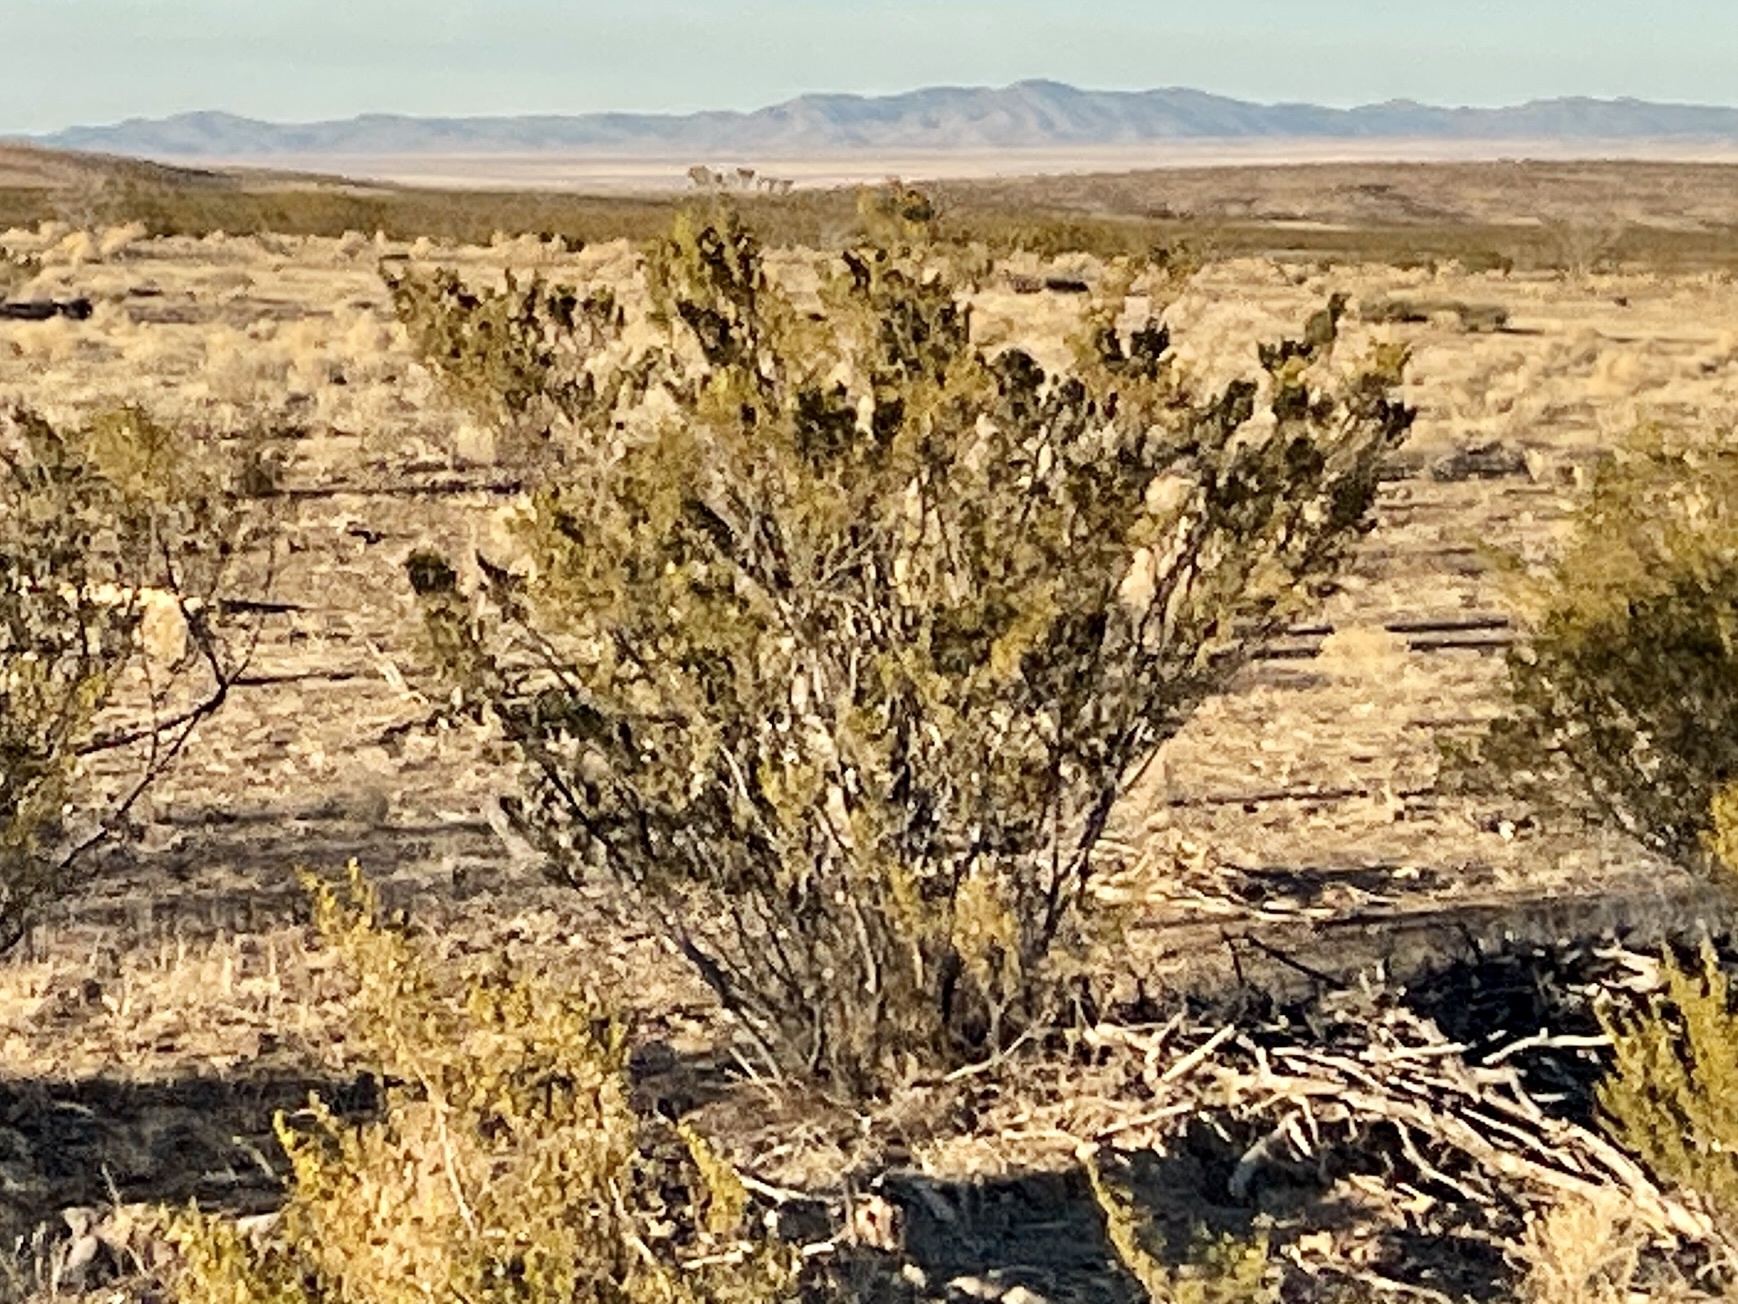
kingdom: Plantae
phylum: Tracheophyta
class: Magnoliopsida
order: Zygophyllales
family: Zygophyllaceae
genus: Larrea
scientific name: Larrea tridentata
